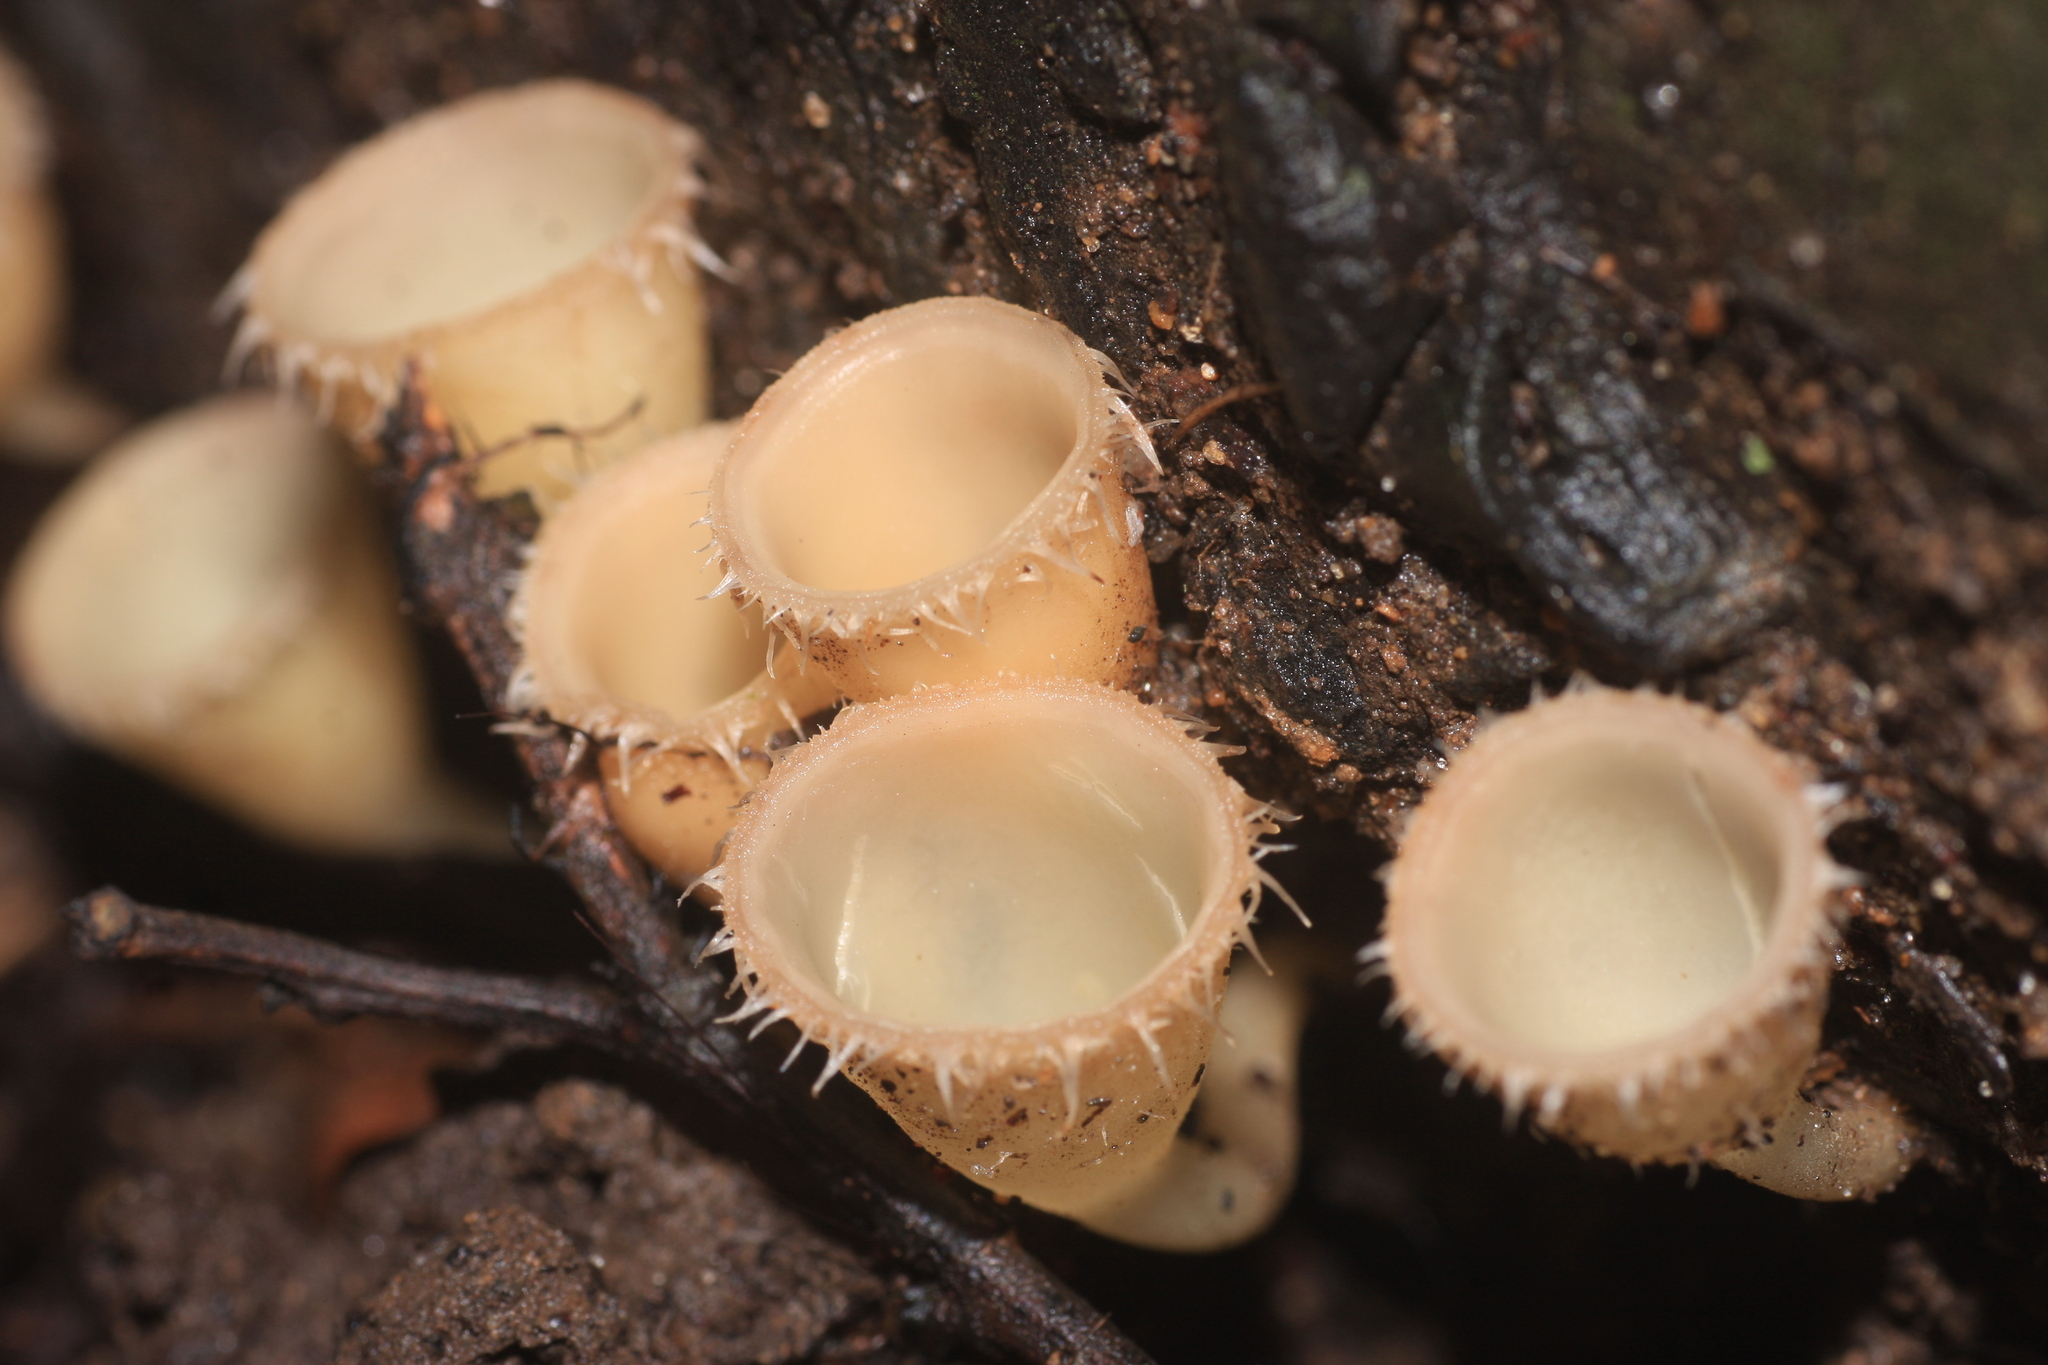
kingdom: Fungi
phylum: Ascomycota
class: Pezizomycetes
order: Pezizales
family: Sarcoscyphaceae
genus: Cookeina
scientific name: Cookeina insititia
